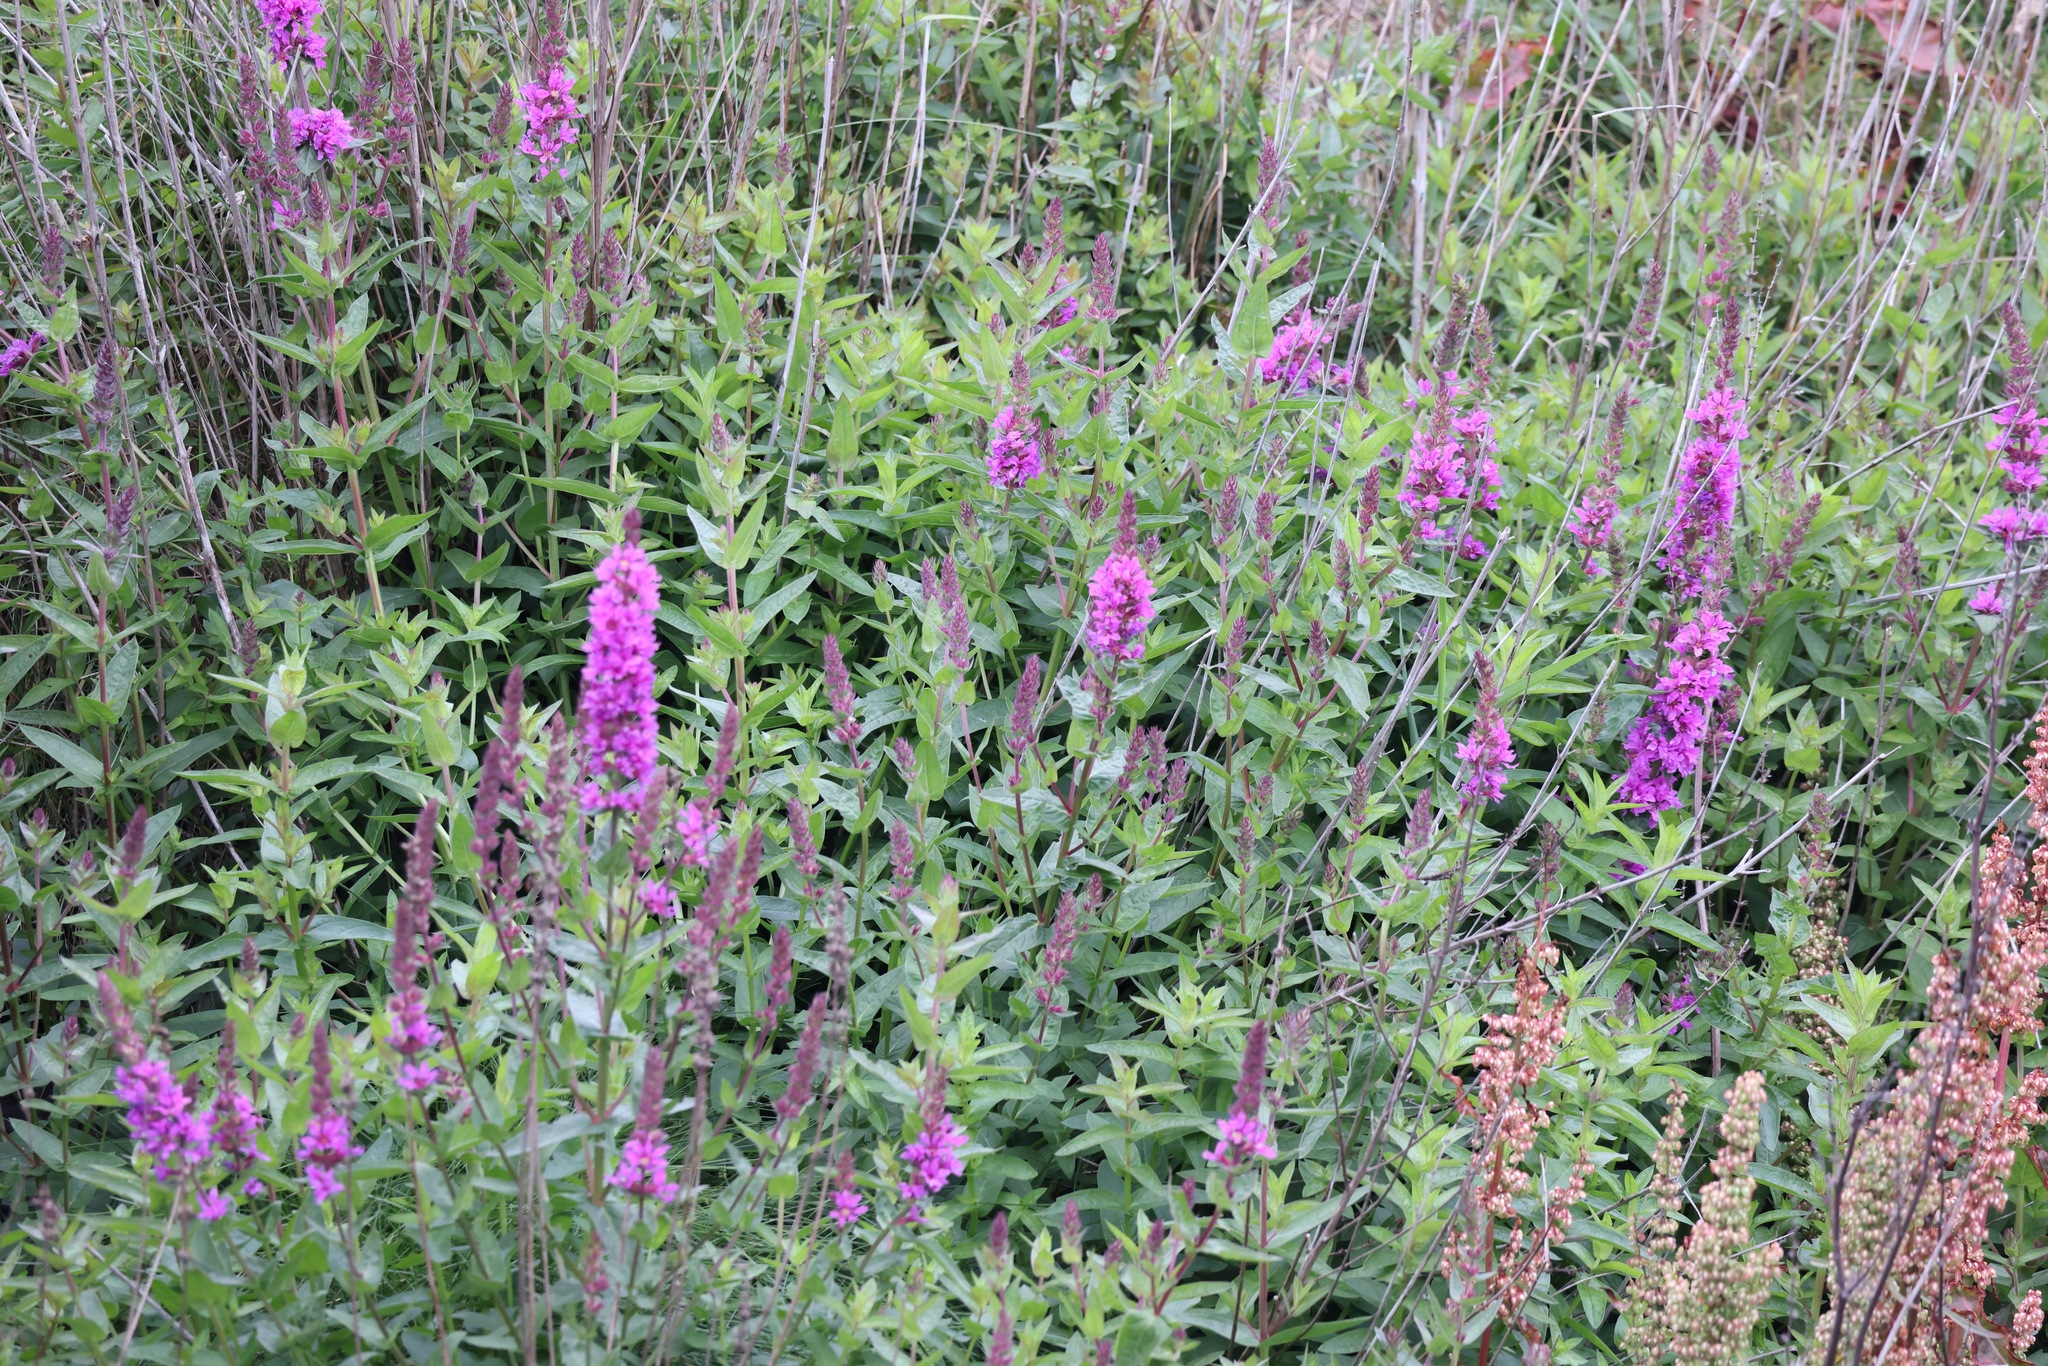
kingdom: Plantae
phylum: Tracheophyta
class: Magnoliopsida
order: Myrtales
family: Lythraceae
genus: Lythrum
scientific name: Lythrum salicaria
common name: Purple loosestrife
